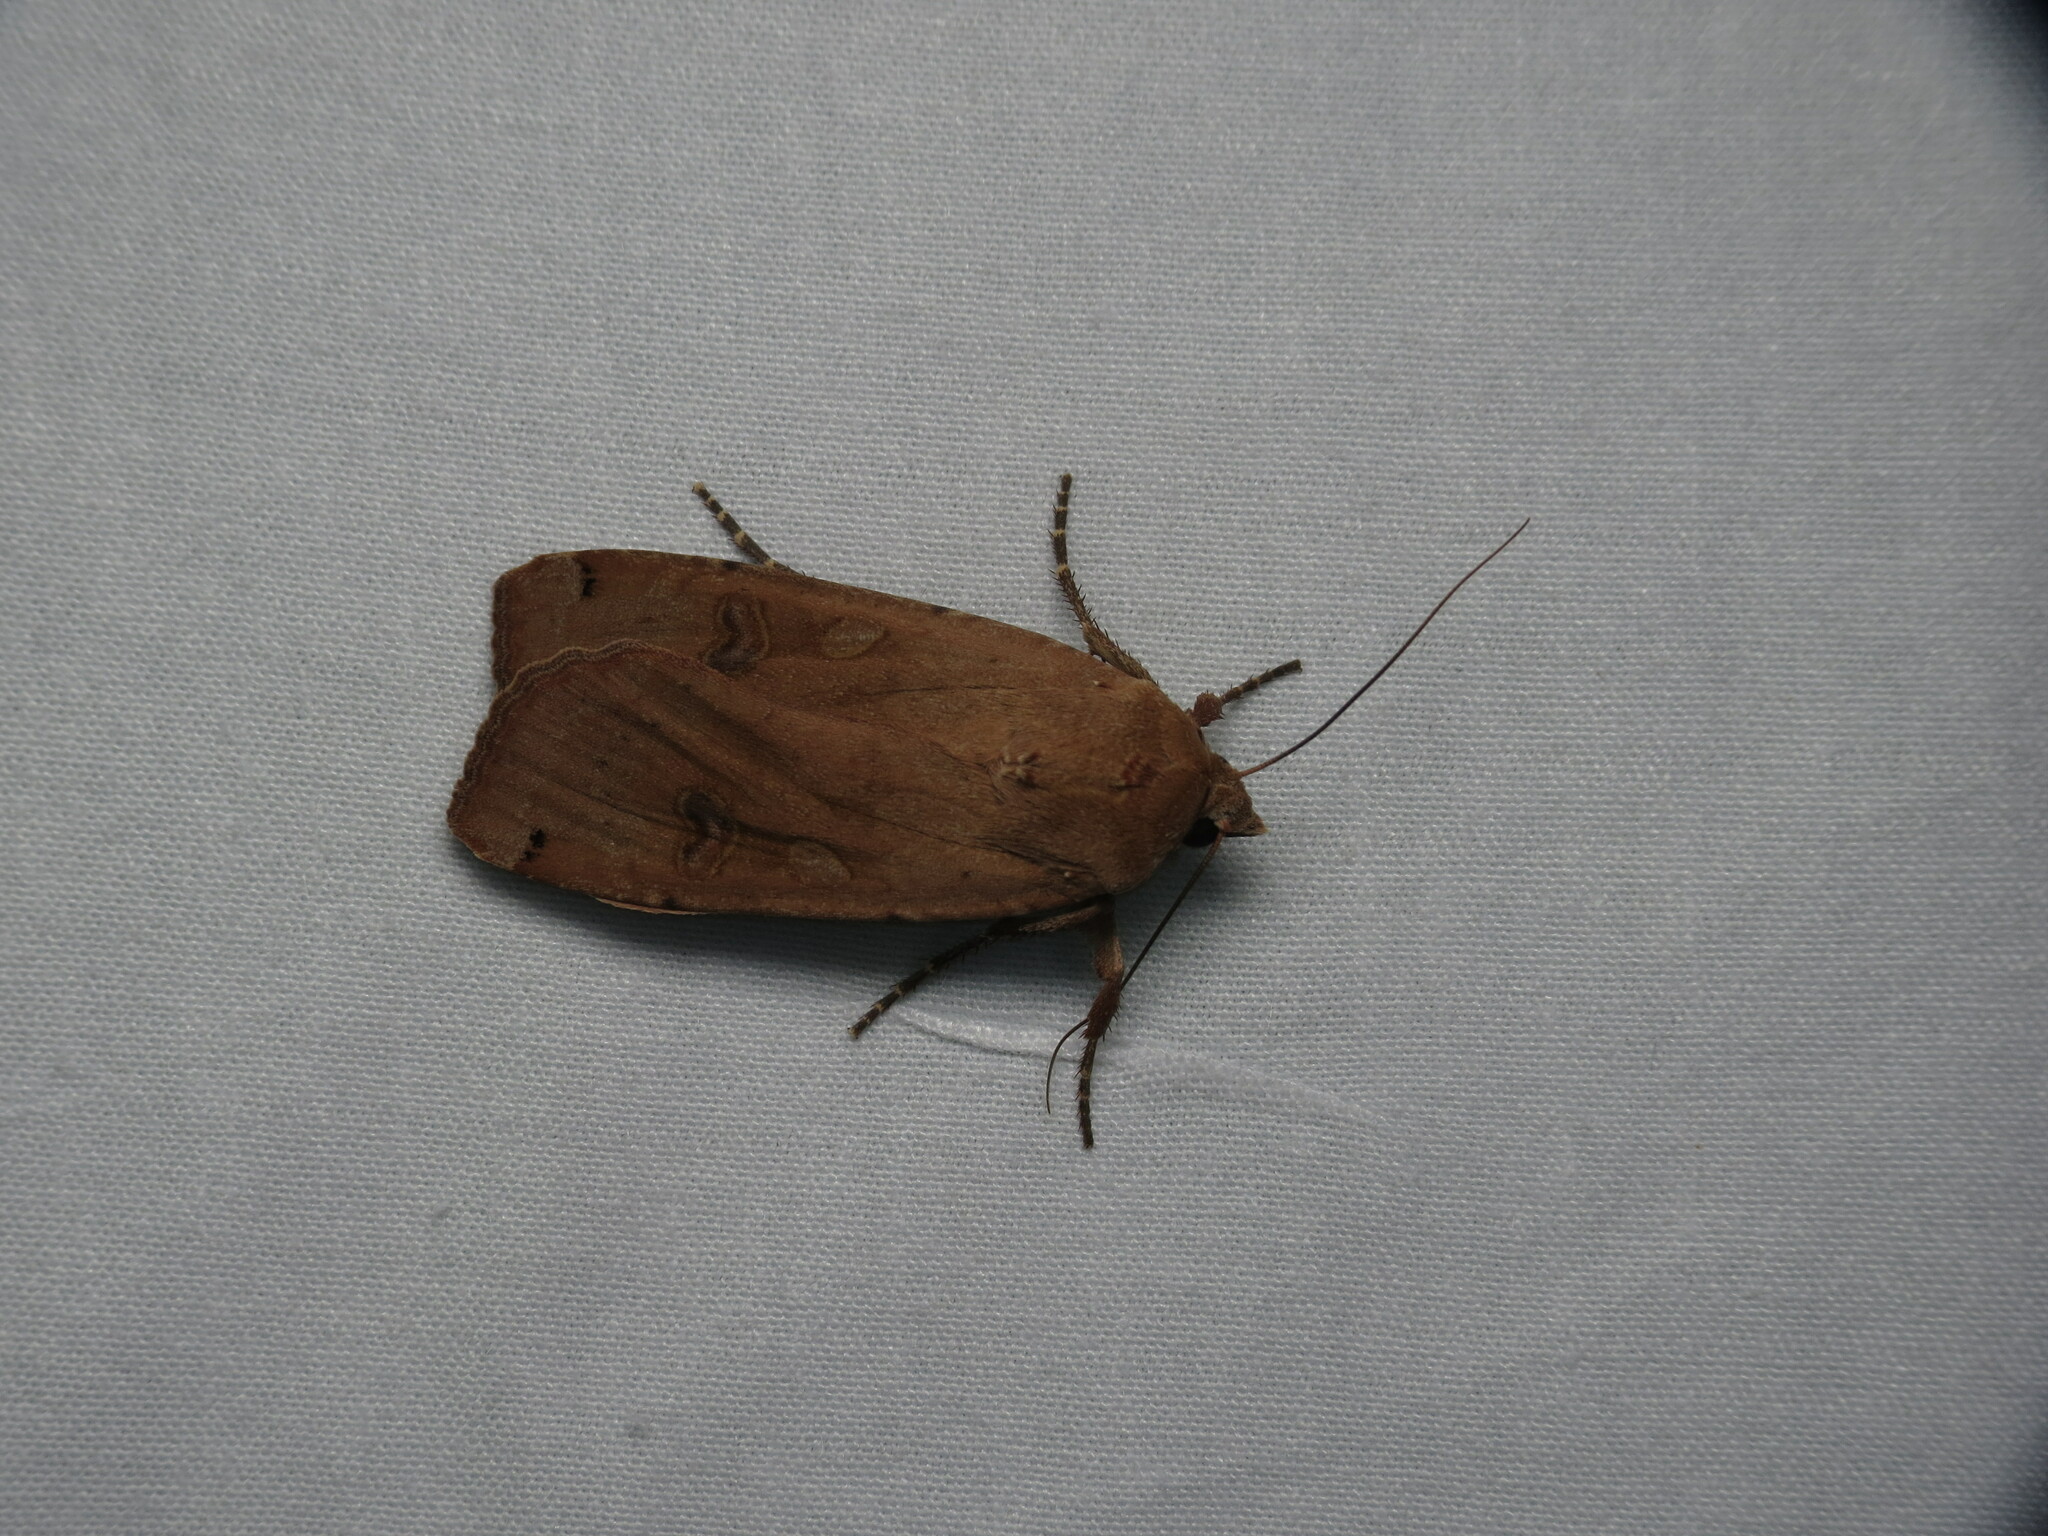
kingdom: Animalia
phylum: Arthropoda
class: Insecta
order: Lepidoptera
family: Noctuidae
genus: Noctua
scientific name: Noctua pronuba
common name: Large yellow underwing
